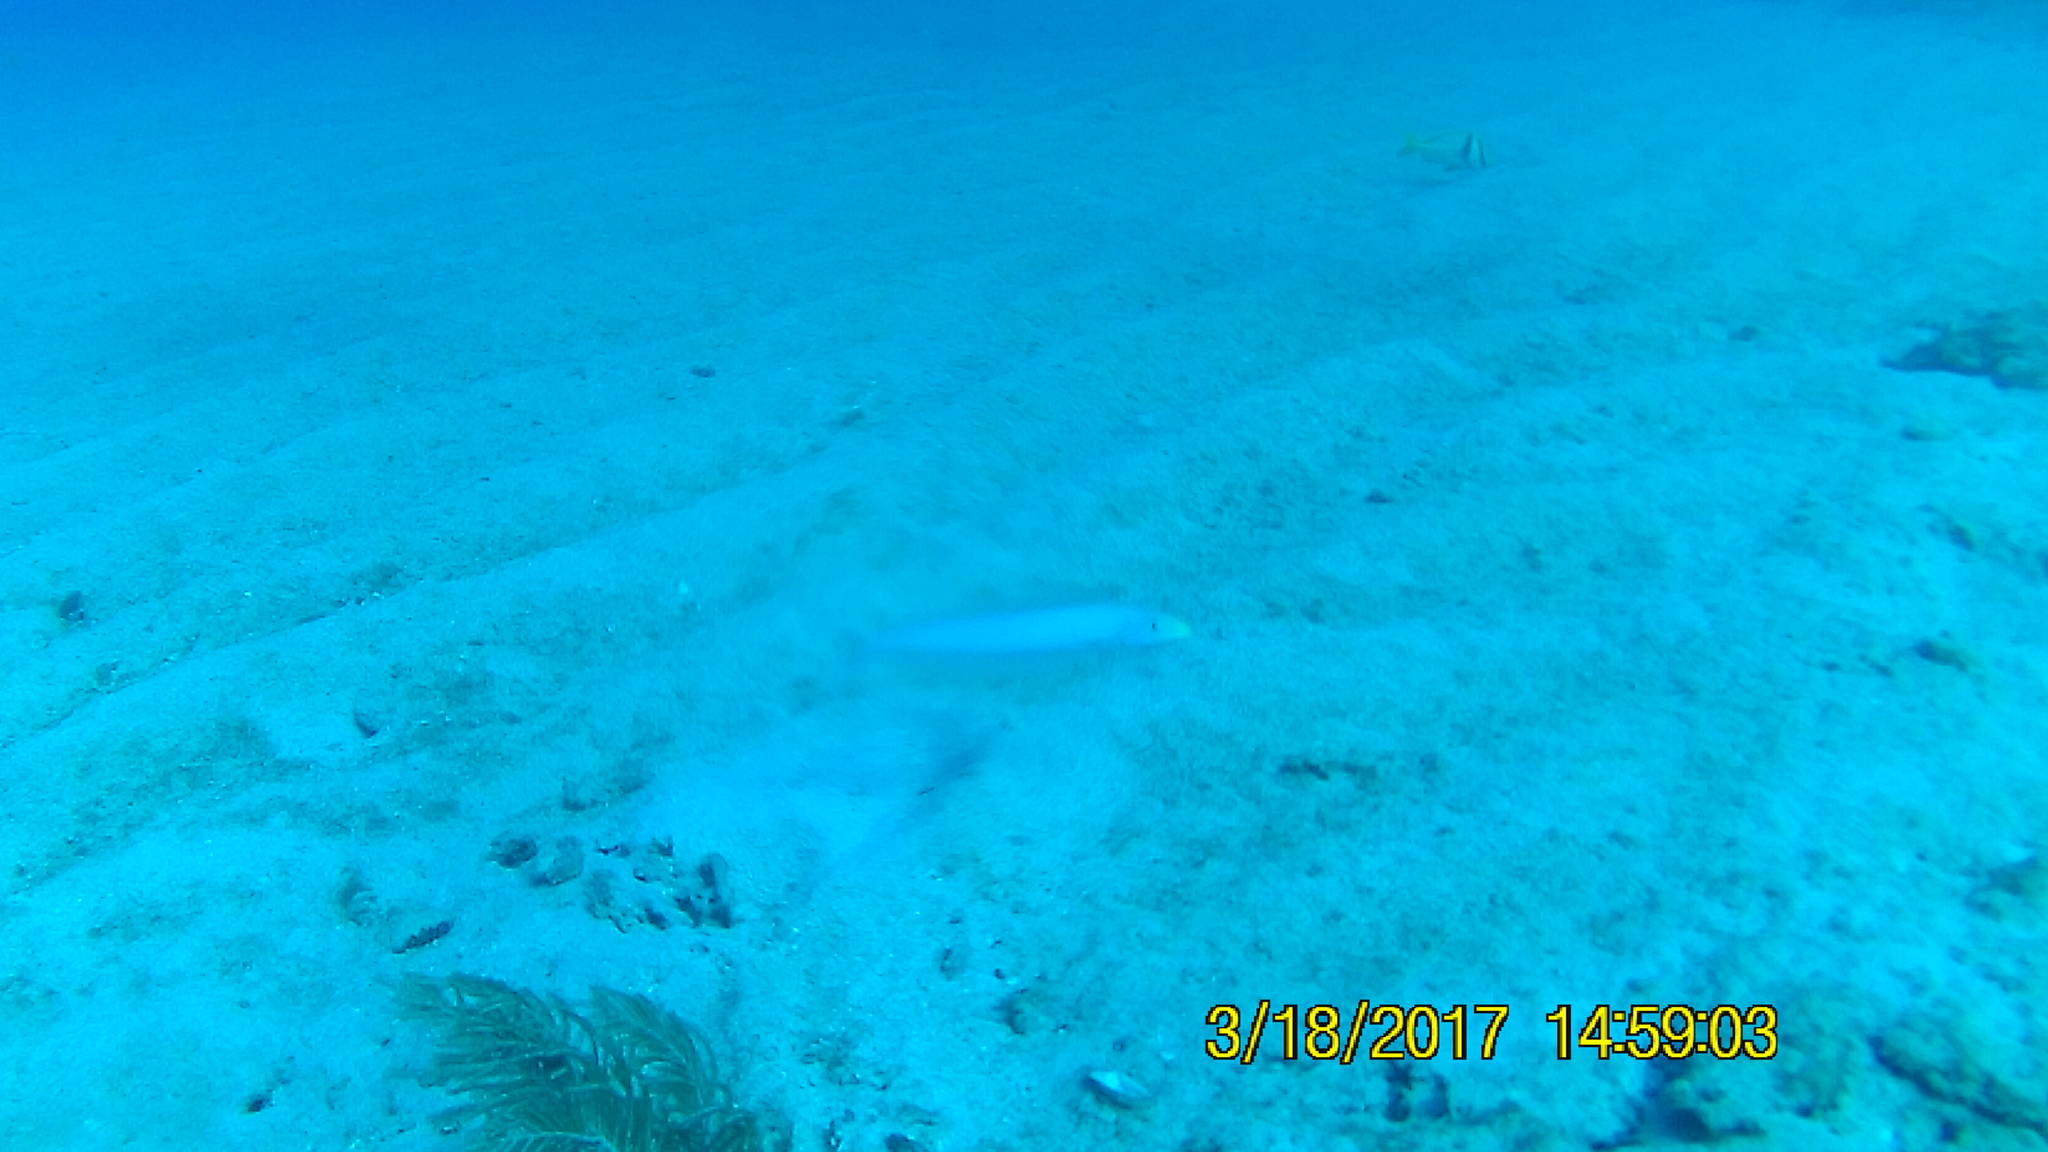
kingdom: Animalia
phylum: Chordata
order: Perciformes
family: Malacanthidae
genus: Malacanthus
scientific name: Malacanthus plumieri
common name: Sand tilefish
